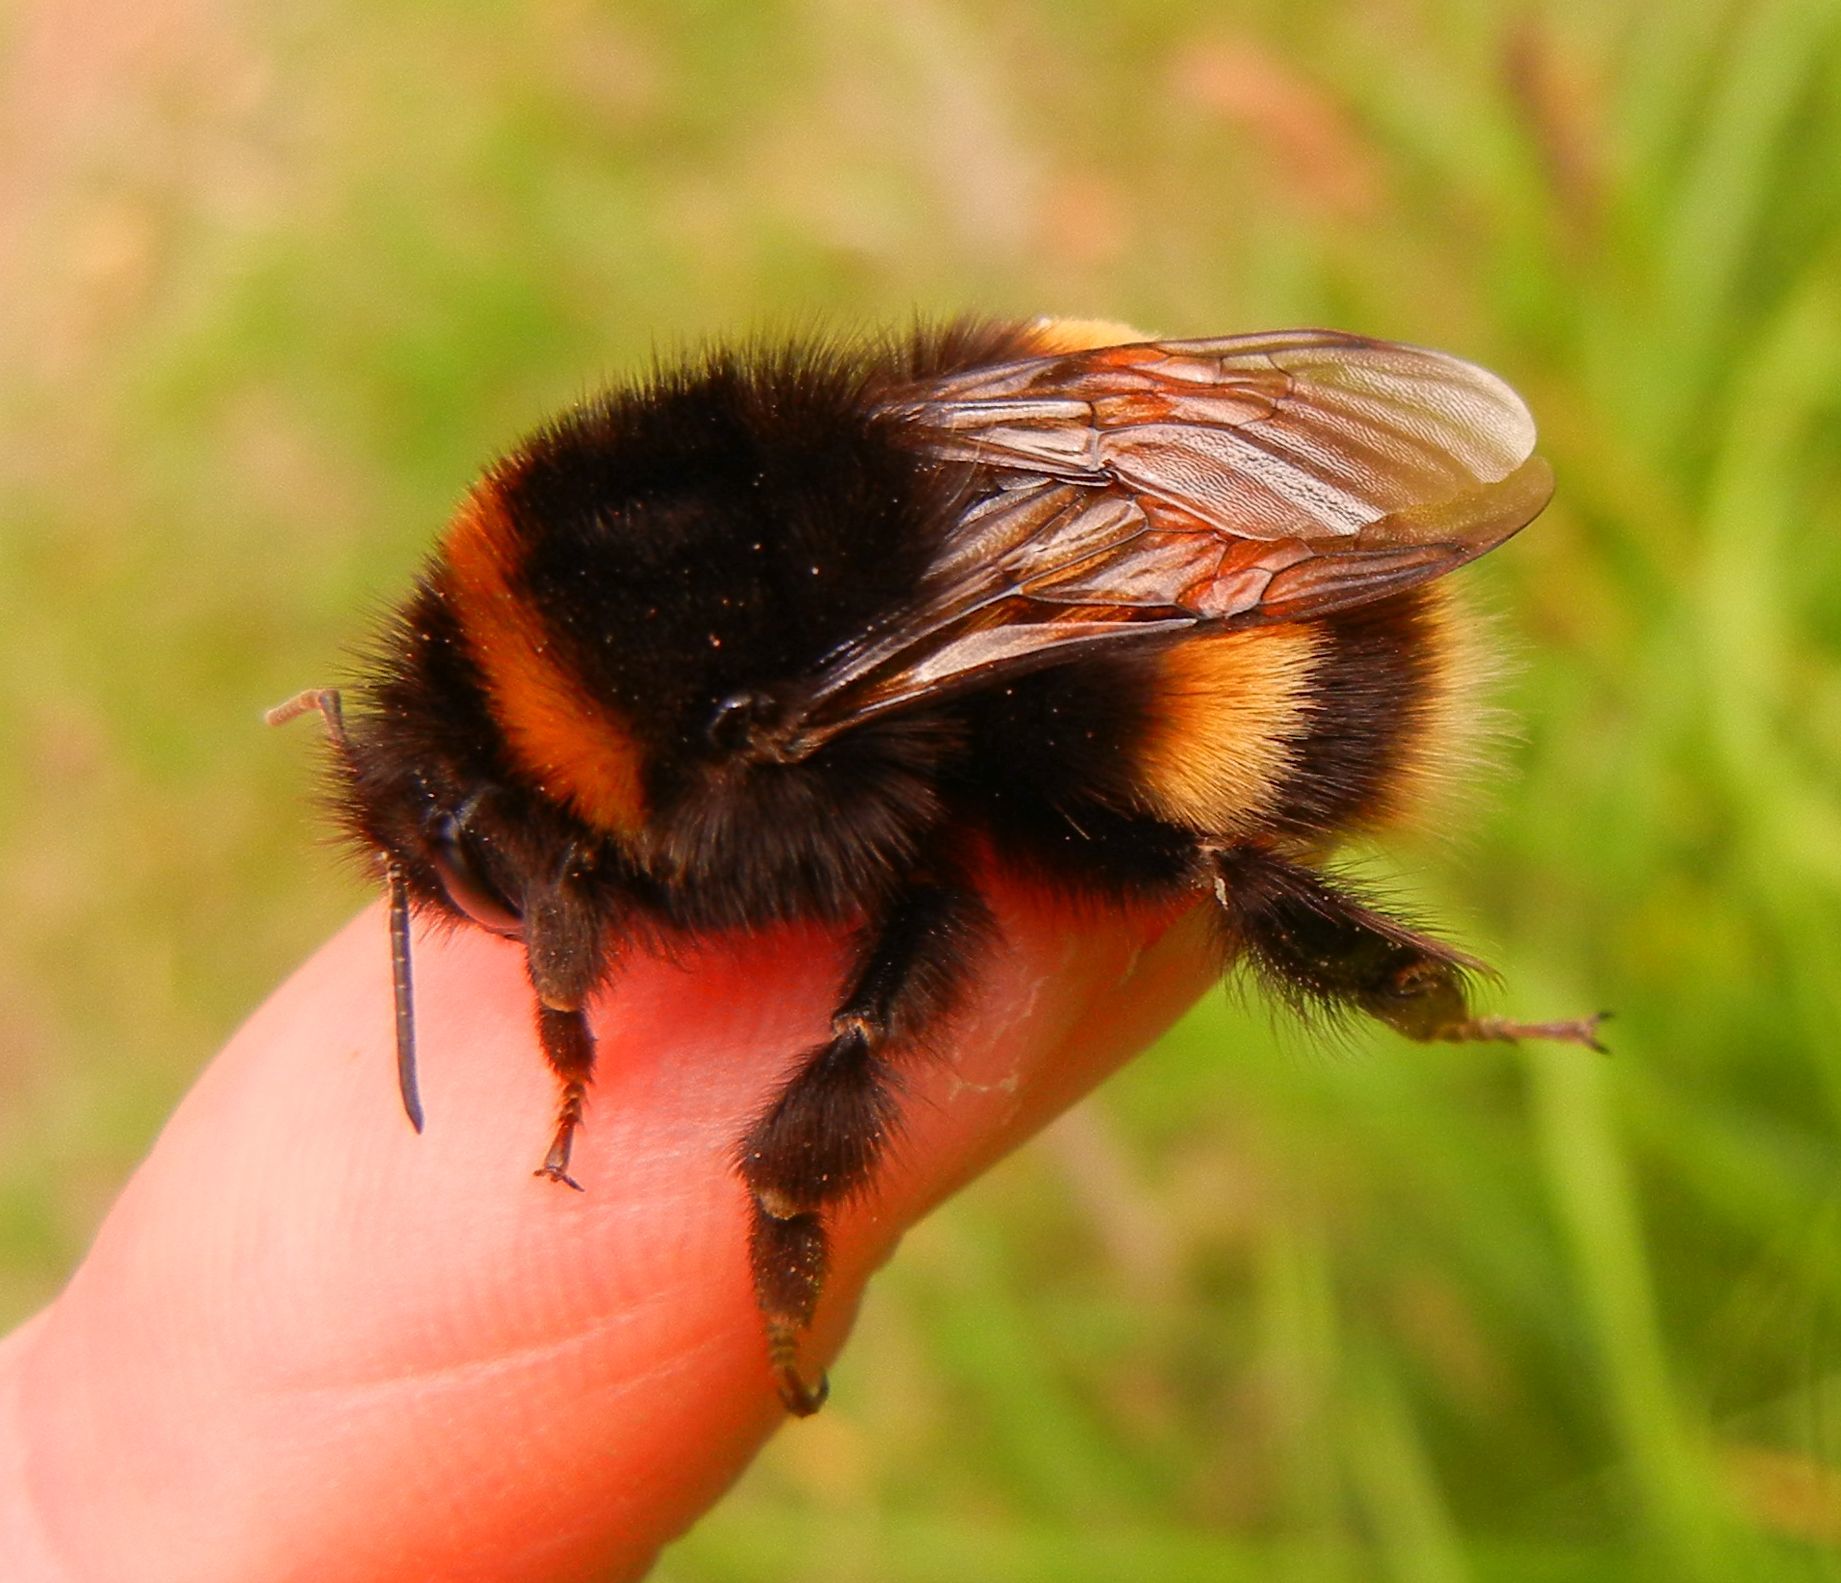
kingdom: Animalia
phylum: Arthropoda
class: Insecta
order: Hymenoptera
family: Apidae
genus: Bombus
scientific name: Bombus terrestris
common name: Buff-tailed bumblebee
